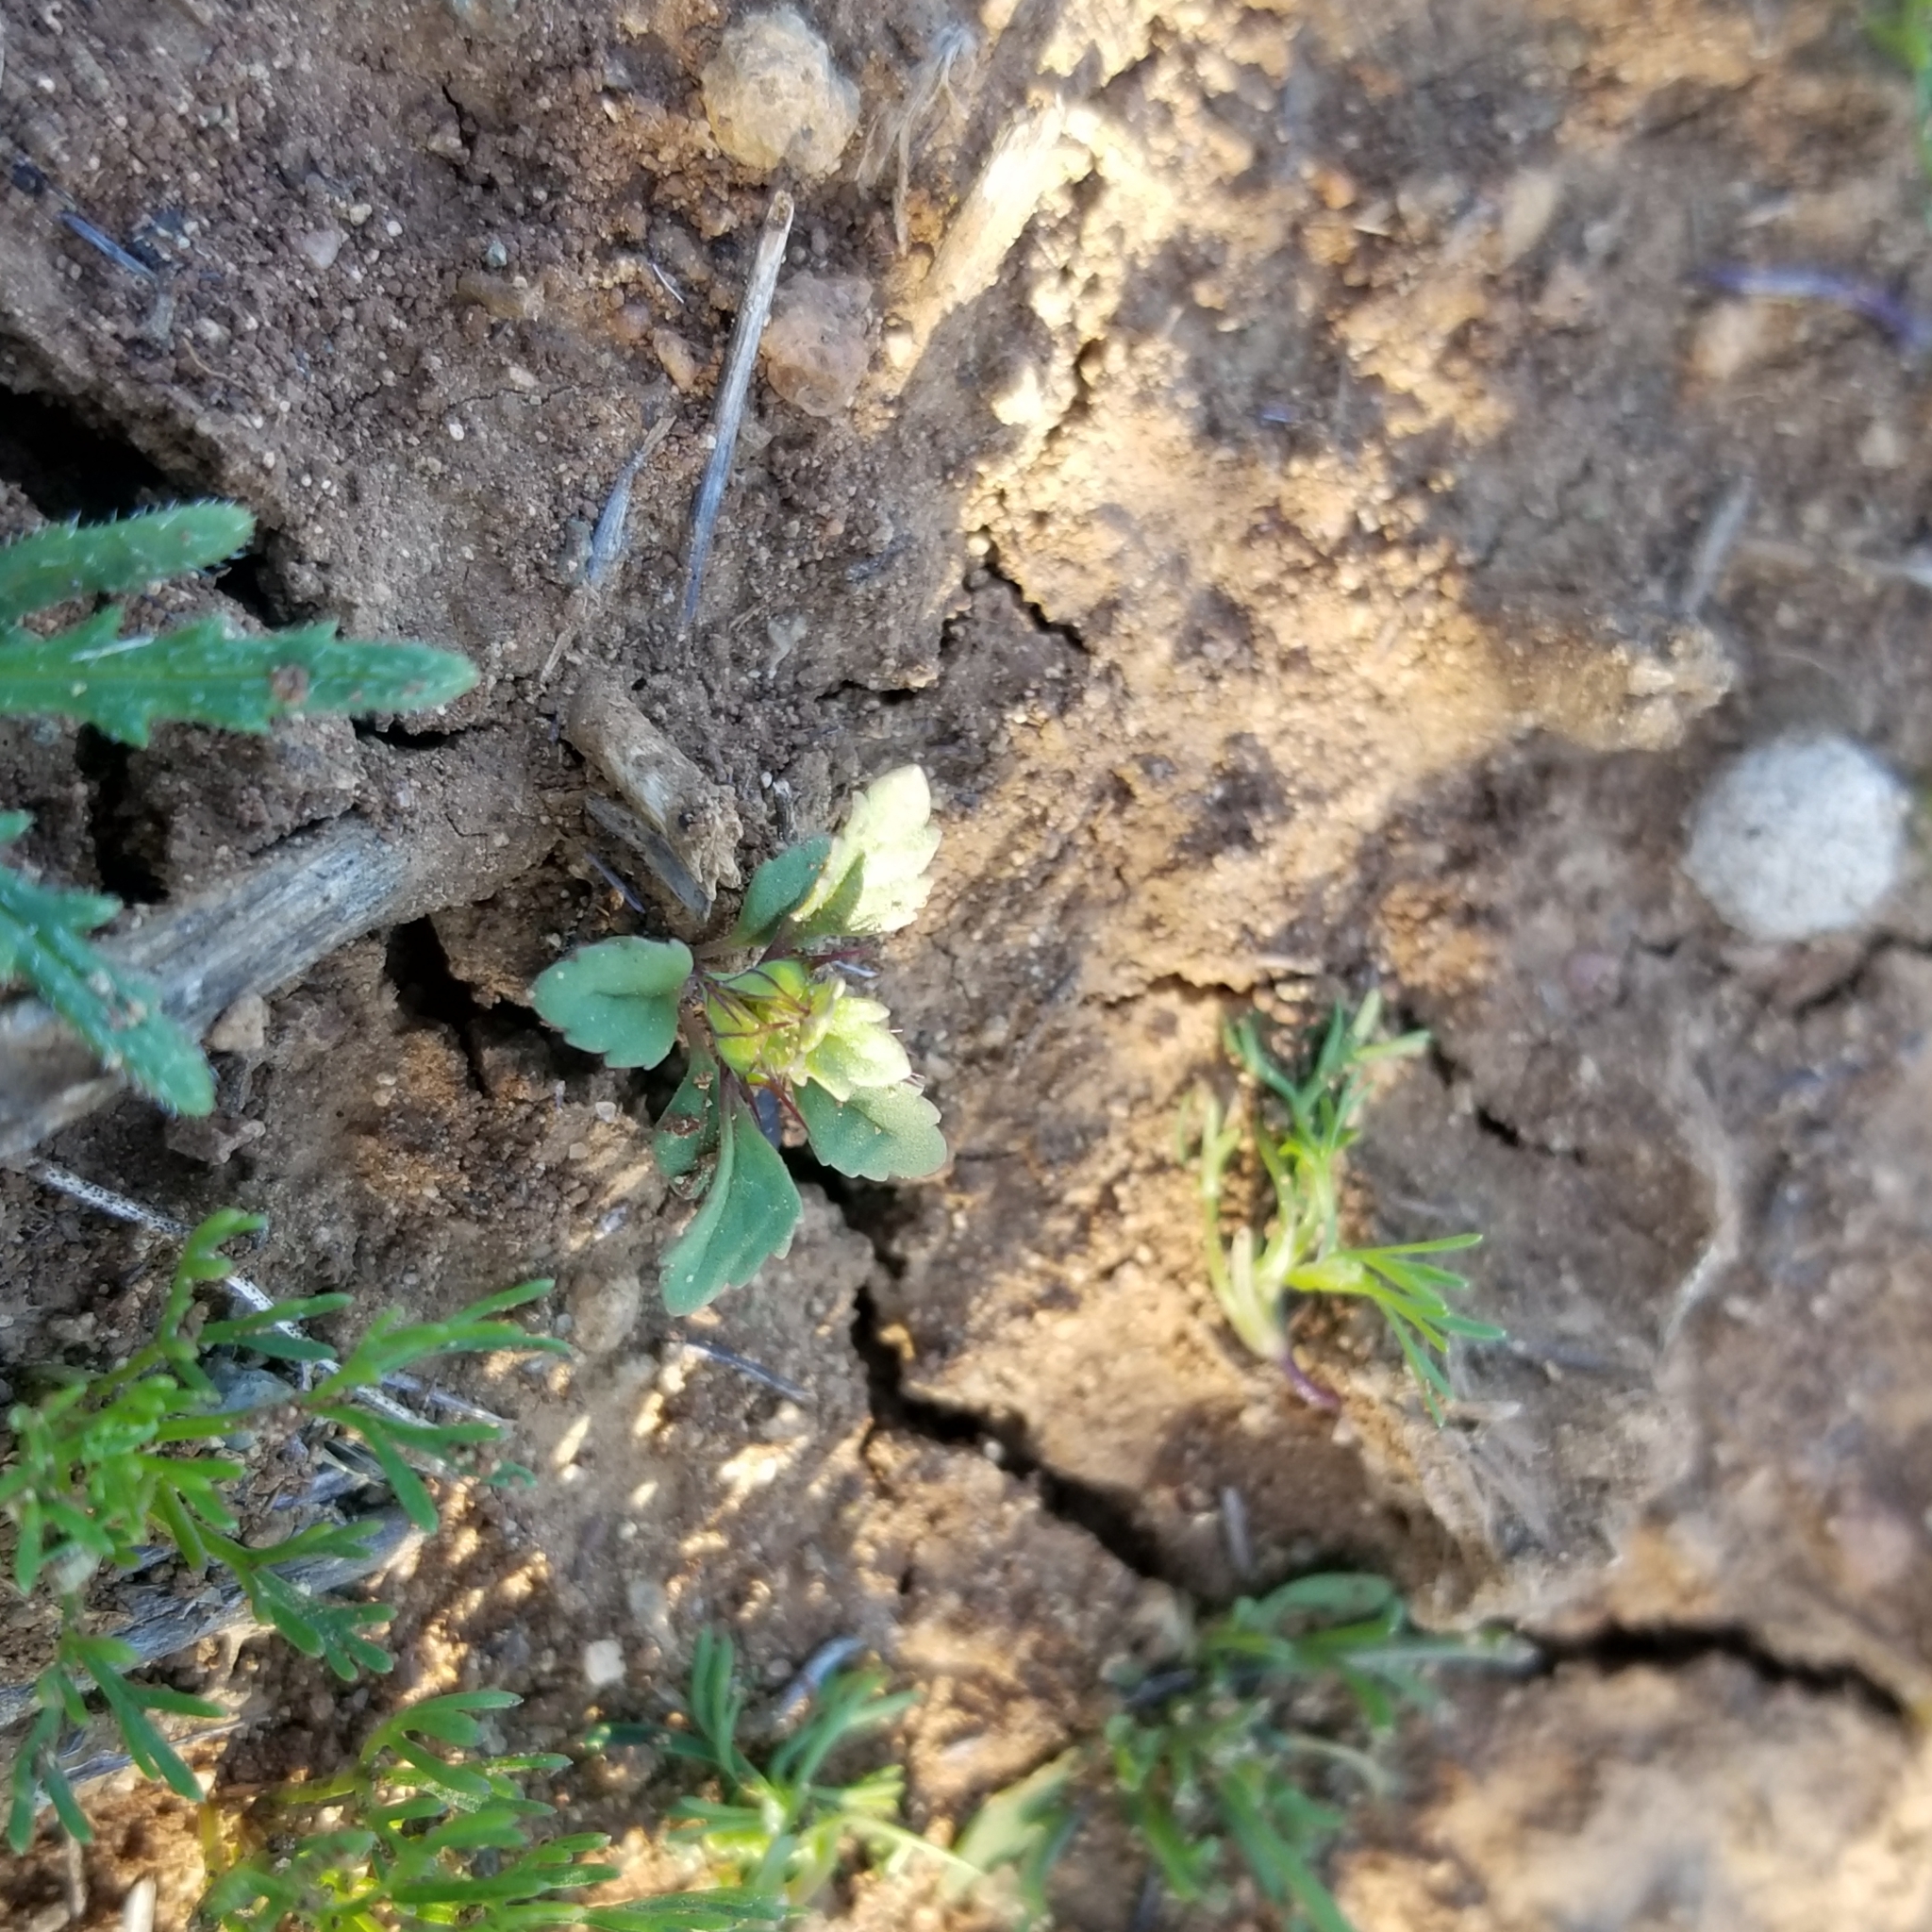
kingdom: Plantae
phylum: Tracheophyta
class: Magnoliopsida
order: Lamiales
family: Lamiaceae
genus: Acanthomintha
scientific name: Acanthomintha ilicifolia
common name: San diego thorn-mint
